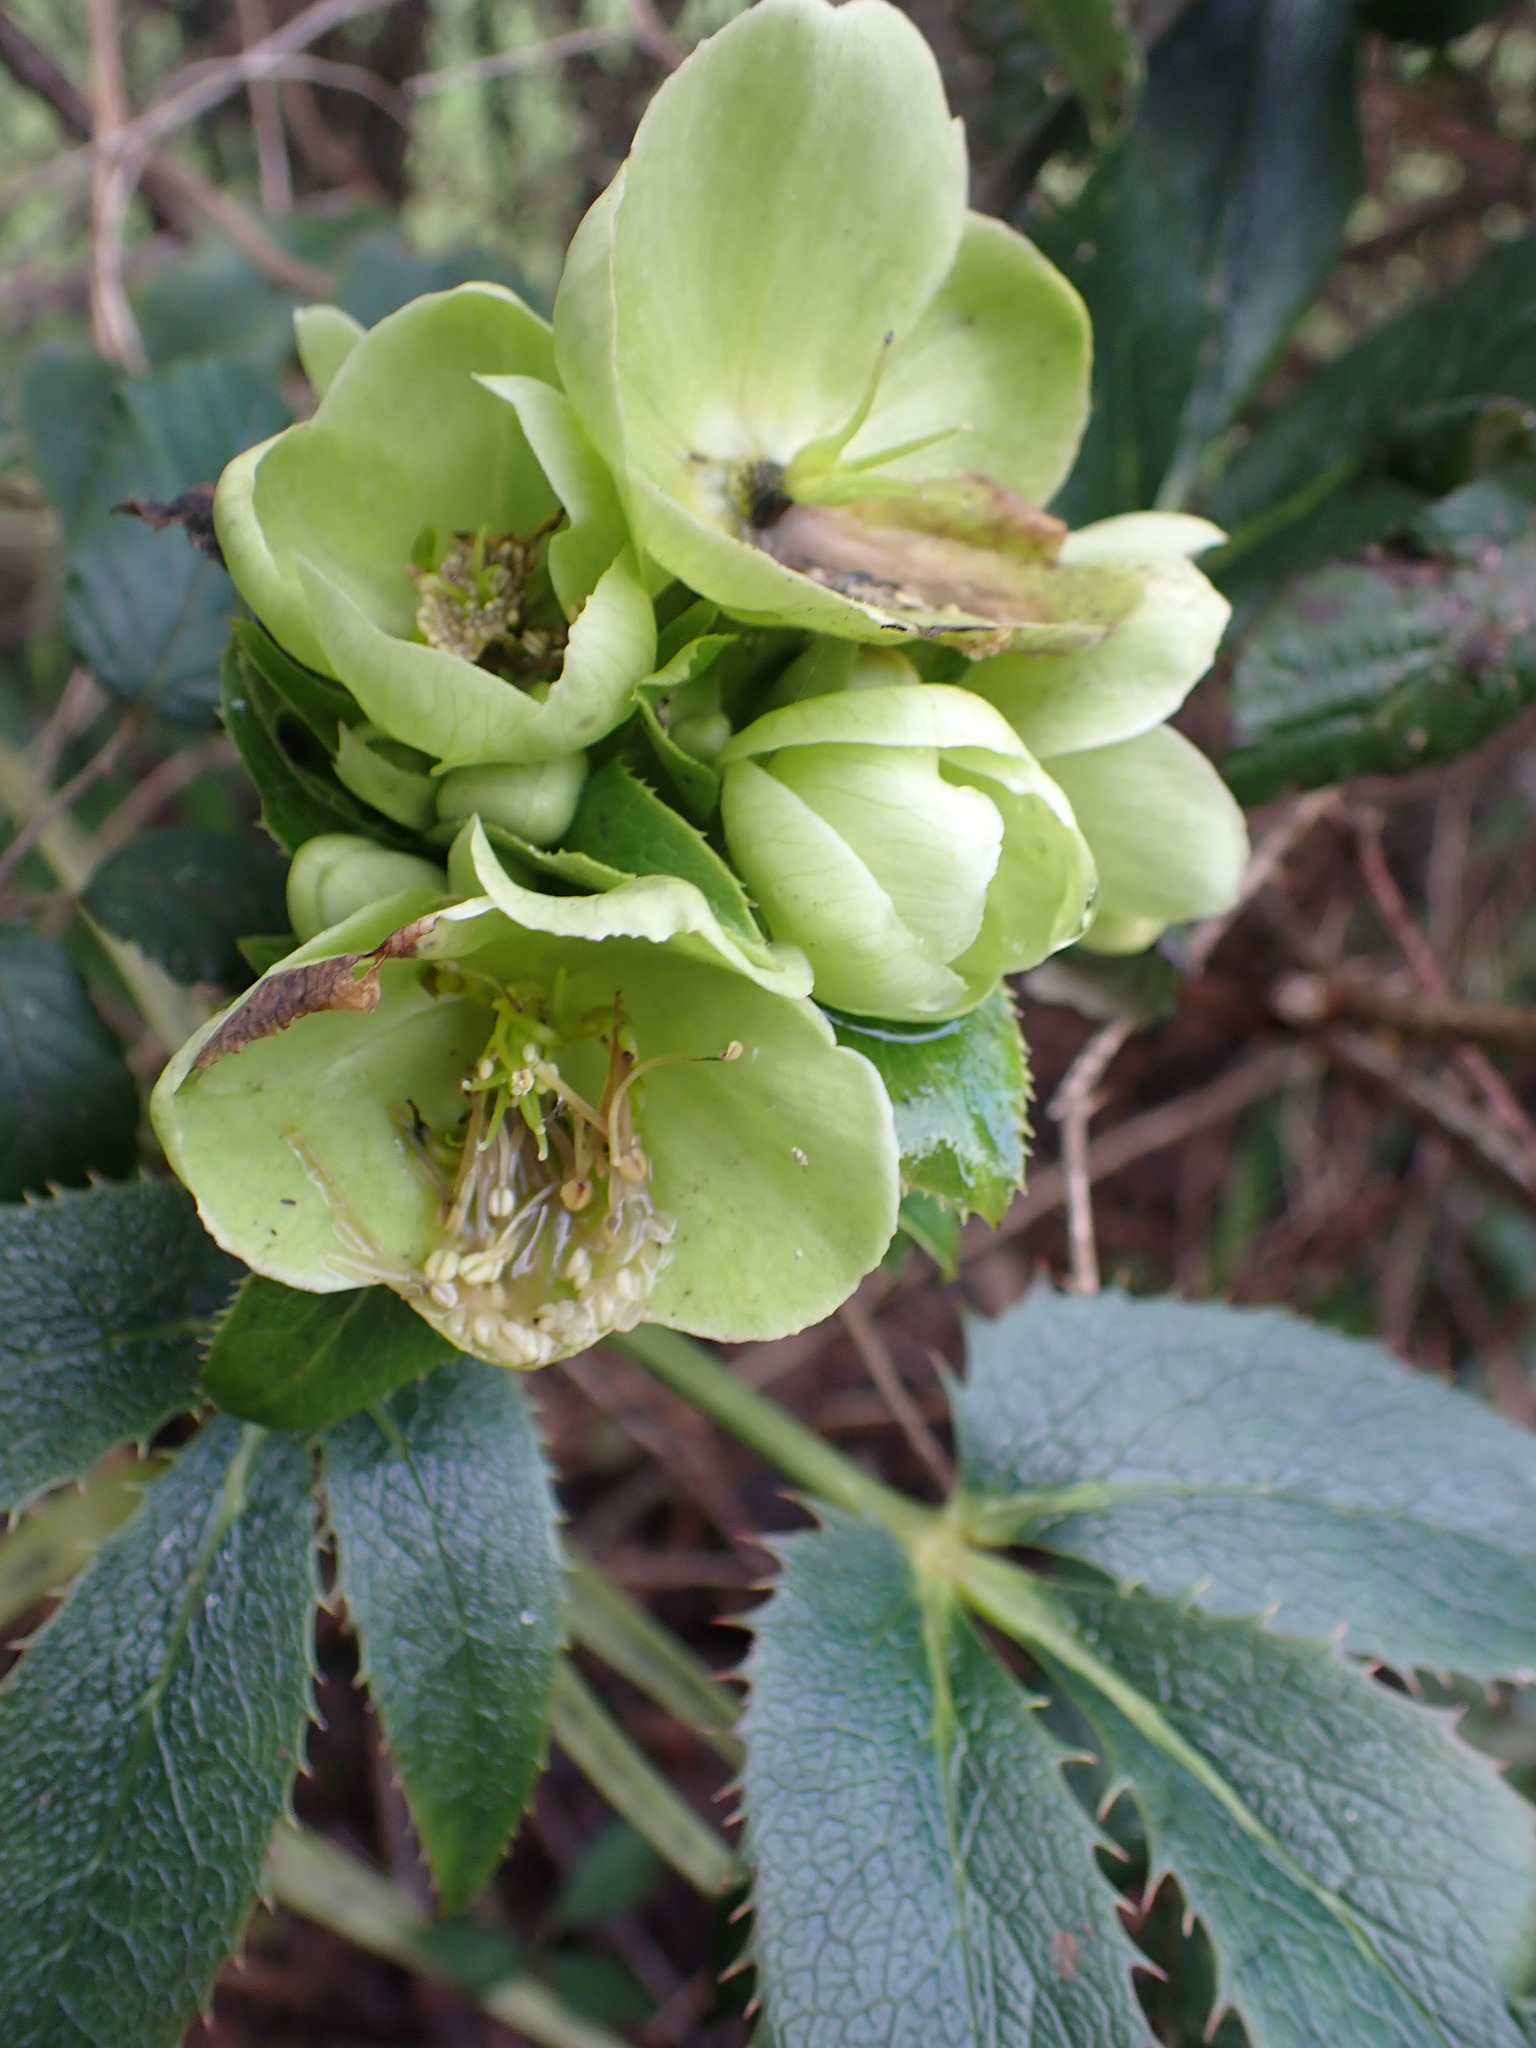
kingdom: Plantae
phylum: Tracheophyta
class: Magnoliopsida
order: Ranunculales
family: Ranunculaceae
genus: Helleborus
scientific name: Helleborus argutifolius
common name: Corsican hellebore
